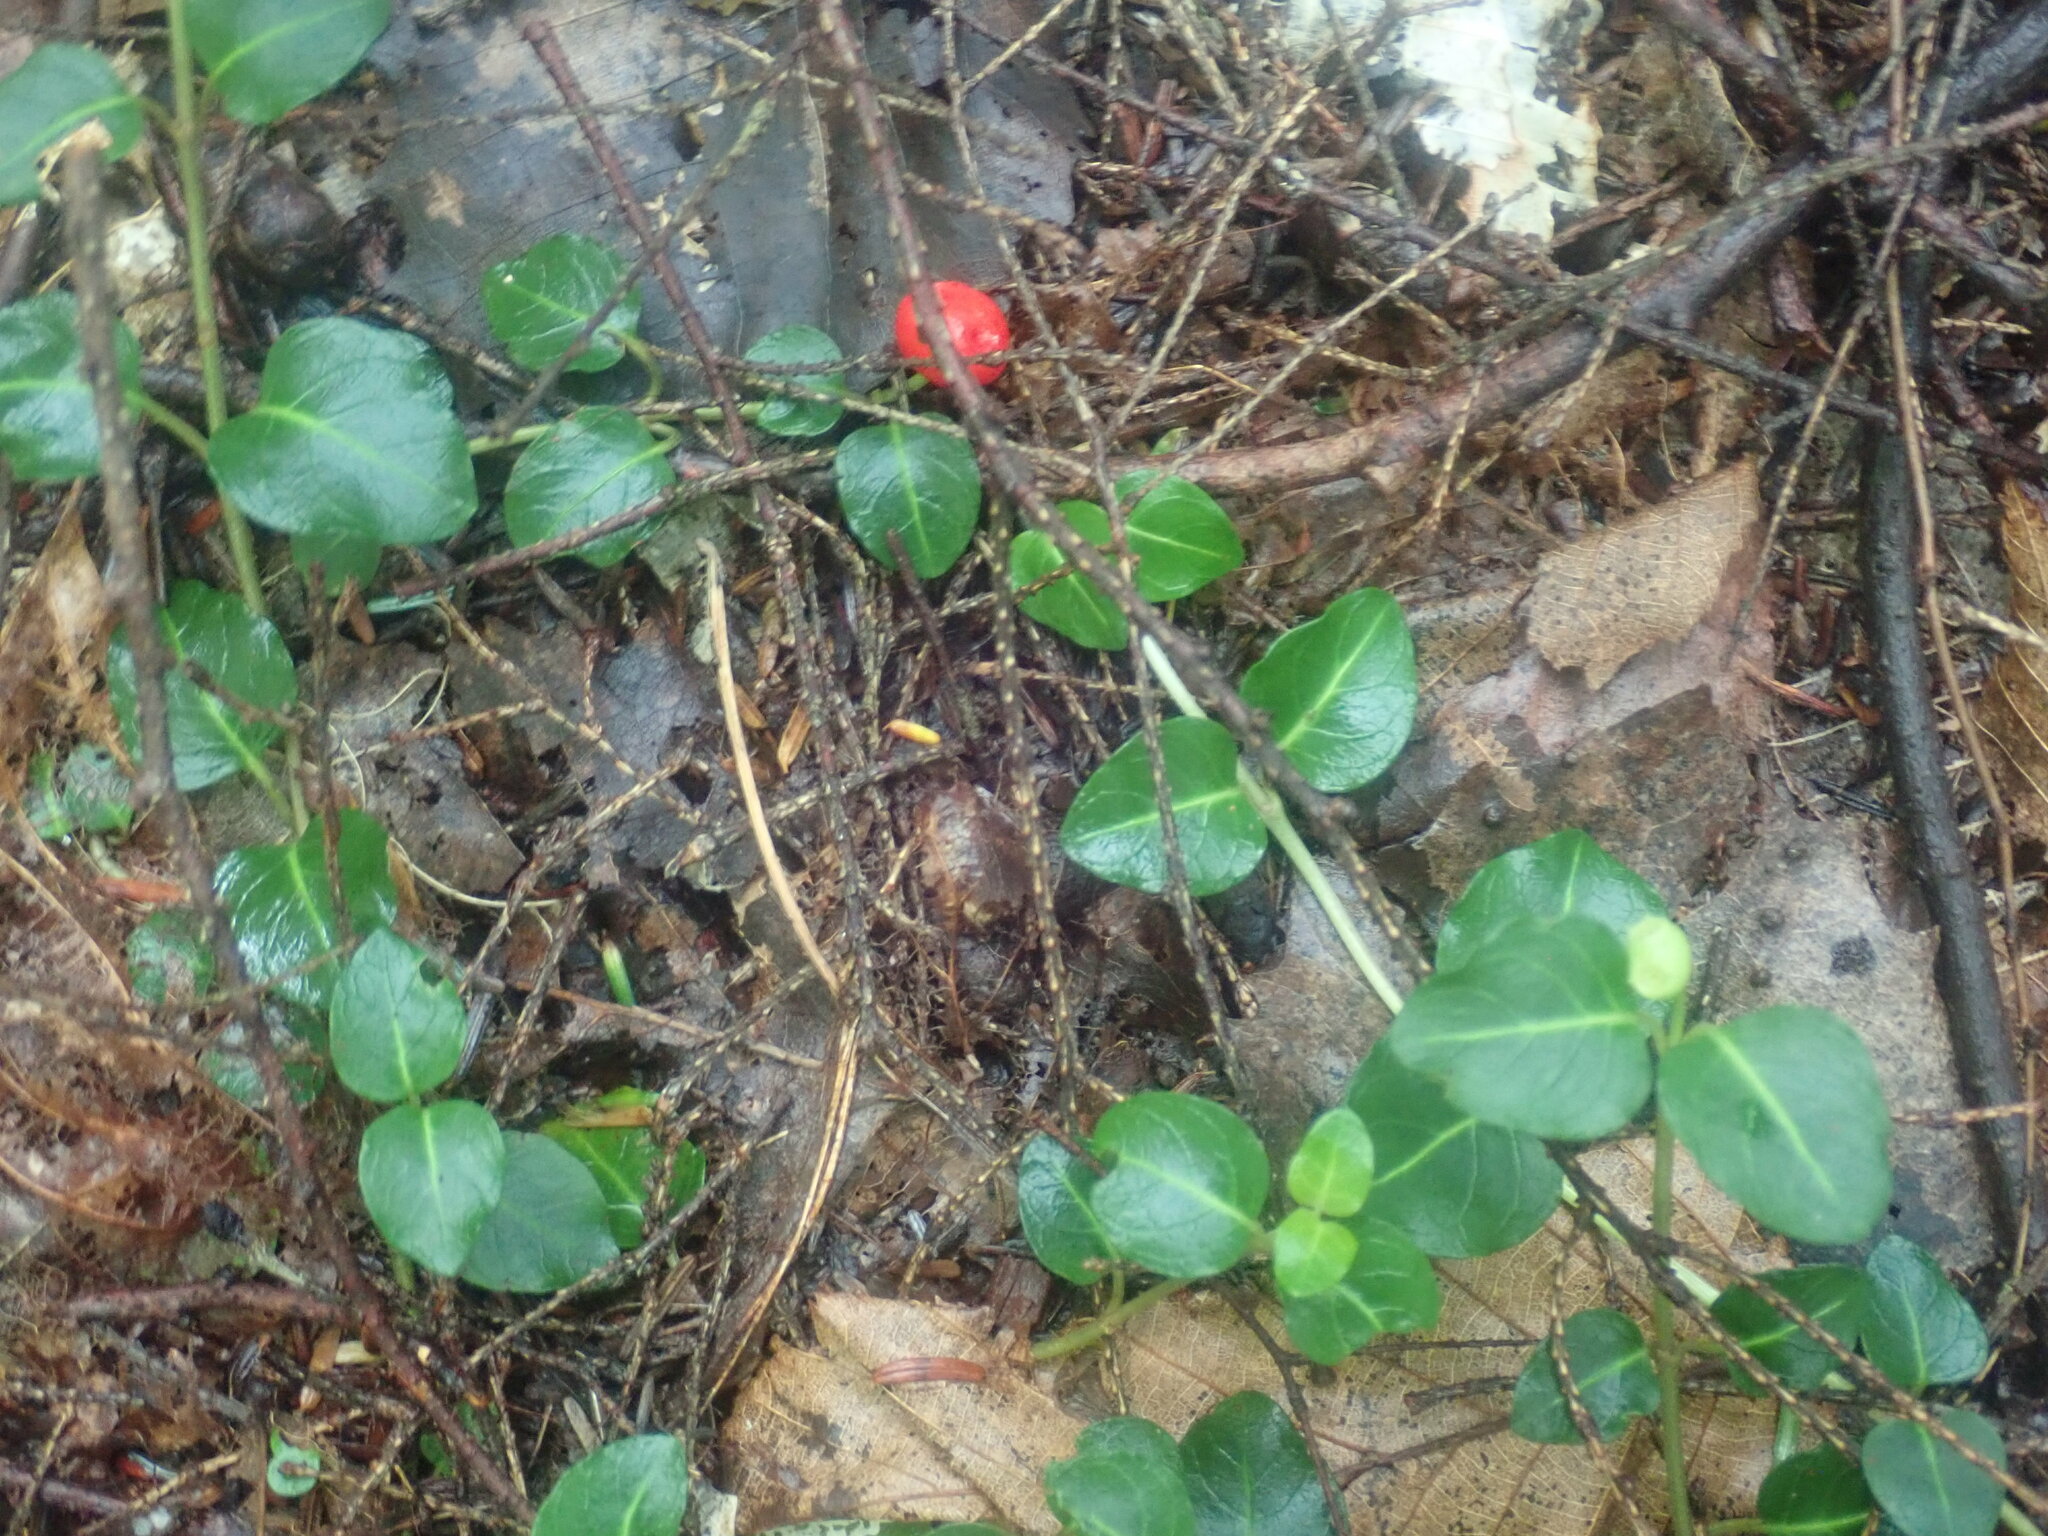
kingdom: Plantae
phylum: Tracheophyta
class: Magnoliopsida
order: Gentianales
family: Rubiaceae
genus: Mitchella
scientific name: Mitchella repens
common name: Partridge-berry
